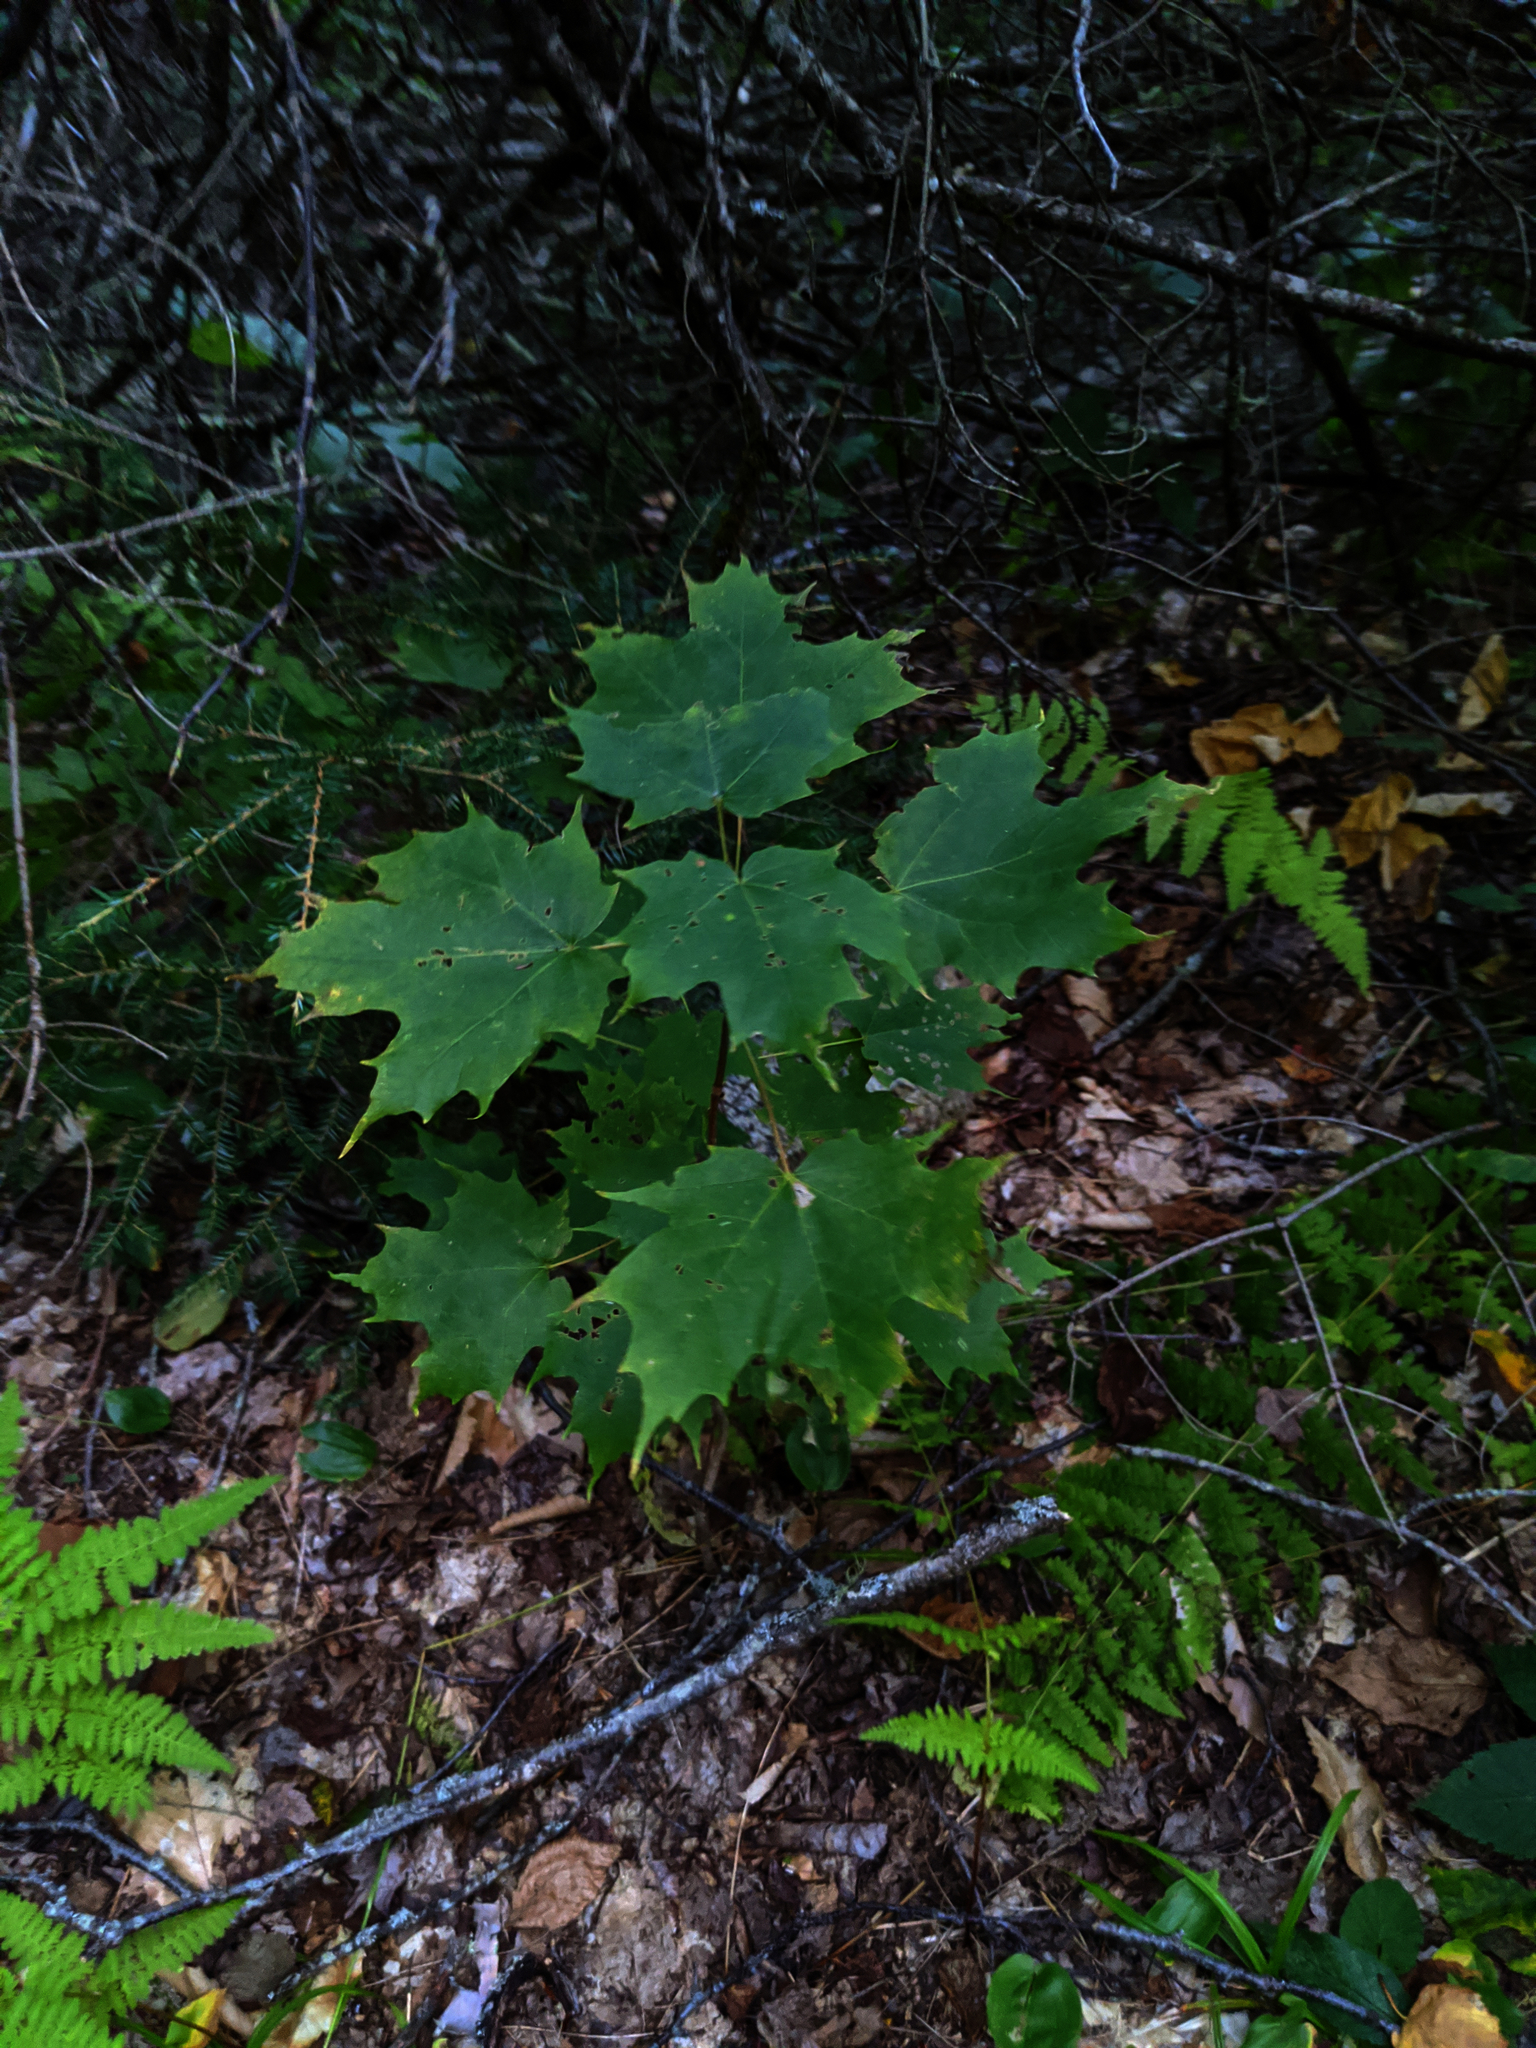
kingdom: Plantae
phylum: Tracheophyta
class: Magnoliopsida
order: Sapindales
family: Sapindaceae
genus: Acer
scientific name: Acer saccharum
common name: Sugar maple
